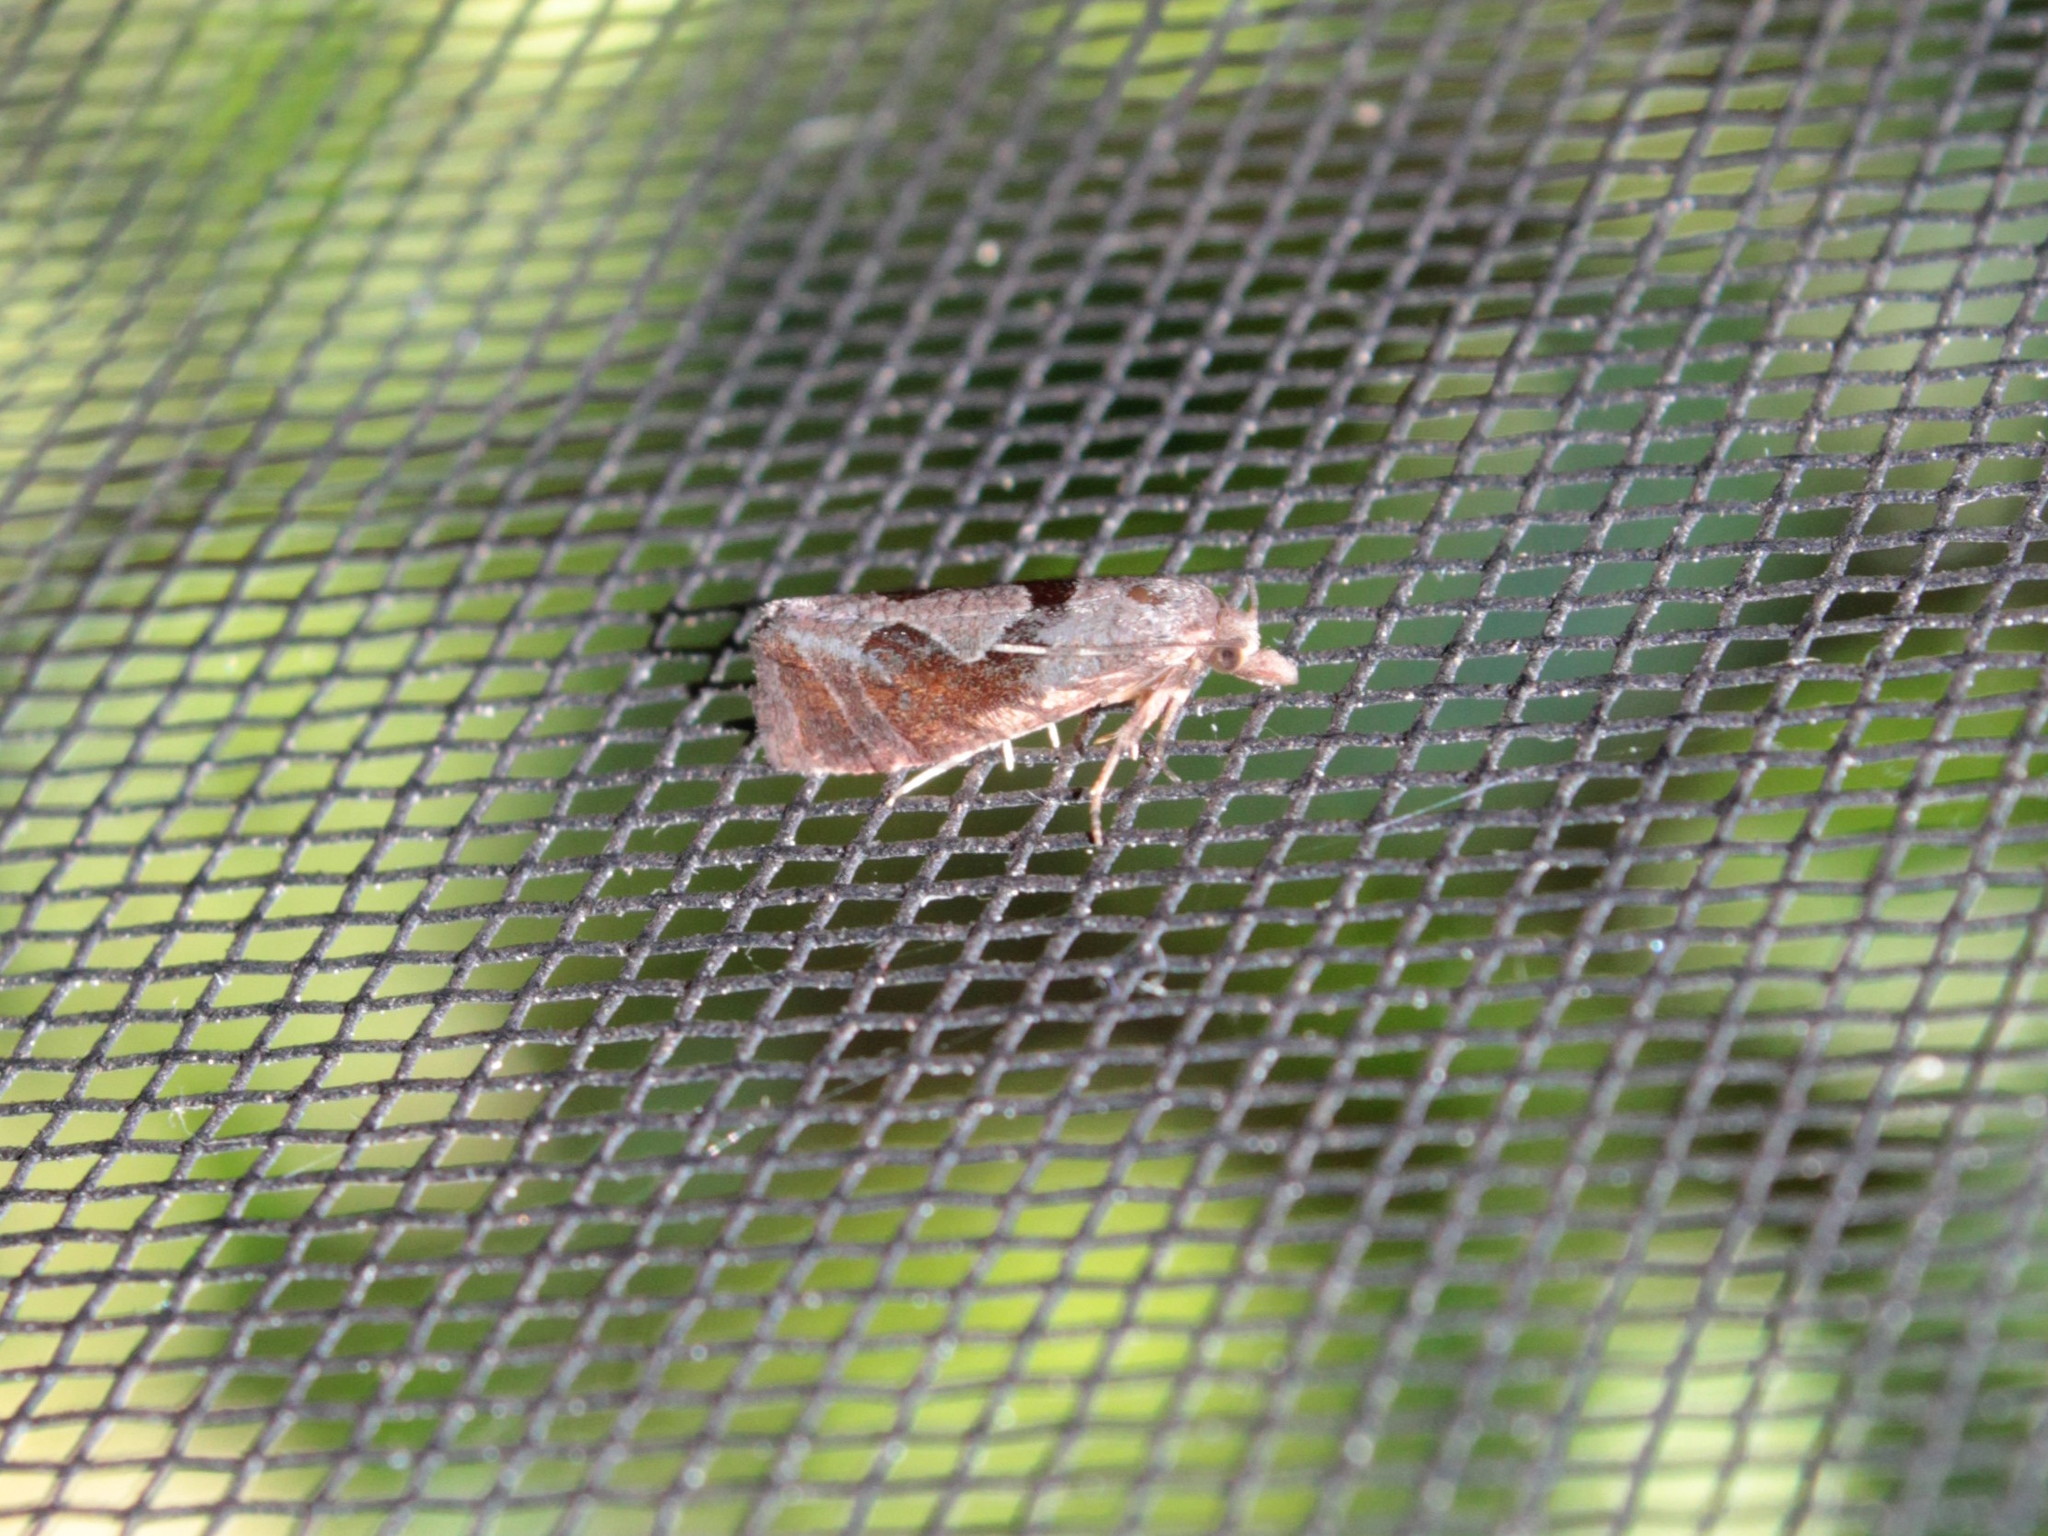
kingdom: Animalia
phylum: Arthropoda
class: Insecta
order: Lepidoptera
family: Tortricidae
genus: Pelochrista
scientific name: Pelochrista similiana
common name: Similar eucosma
